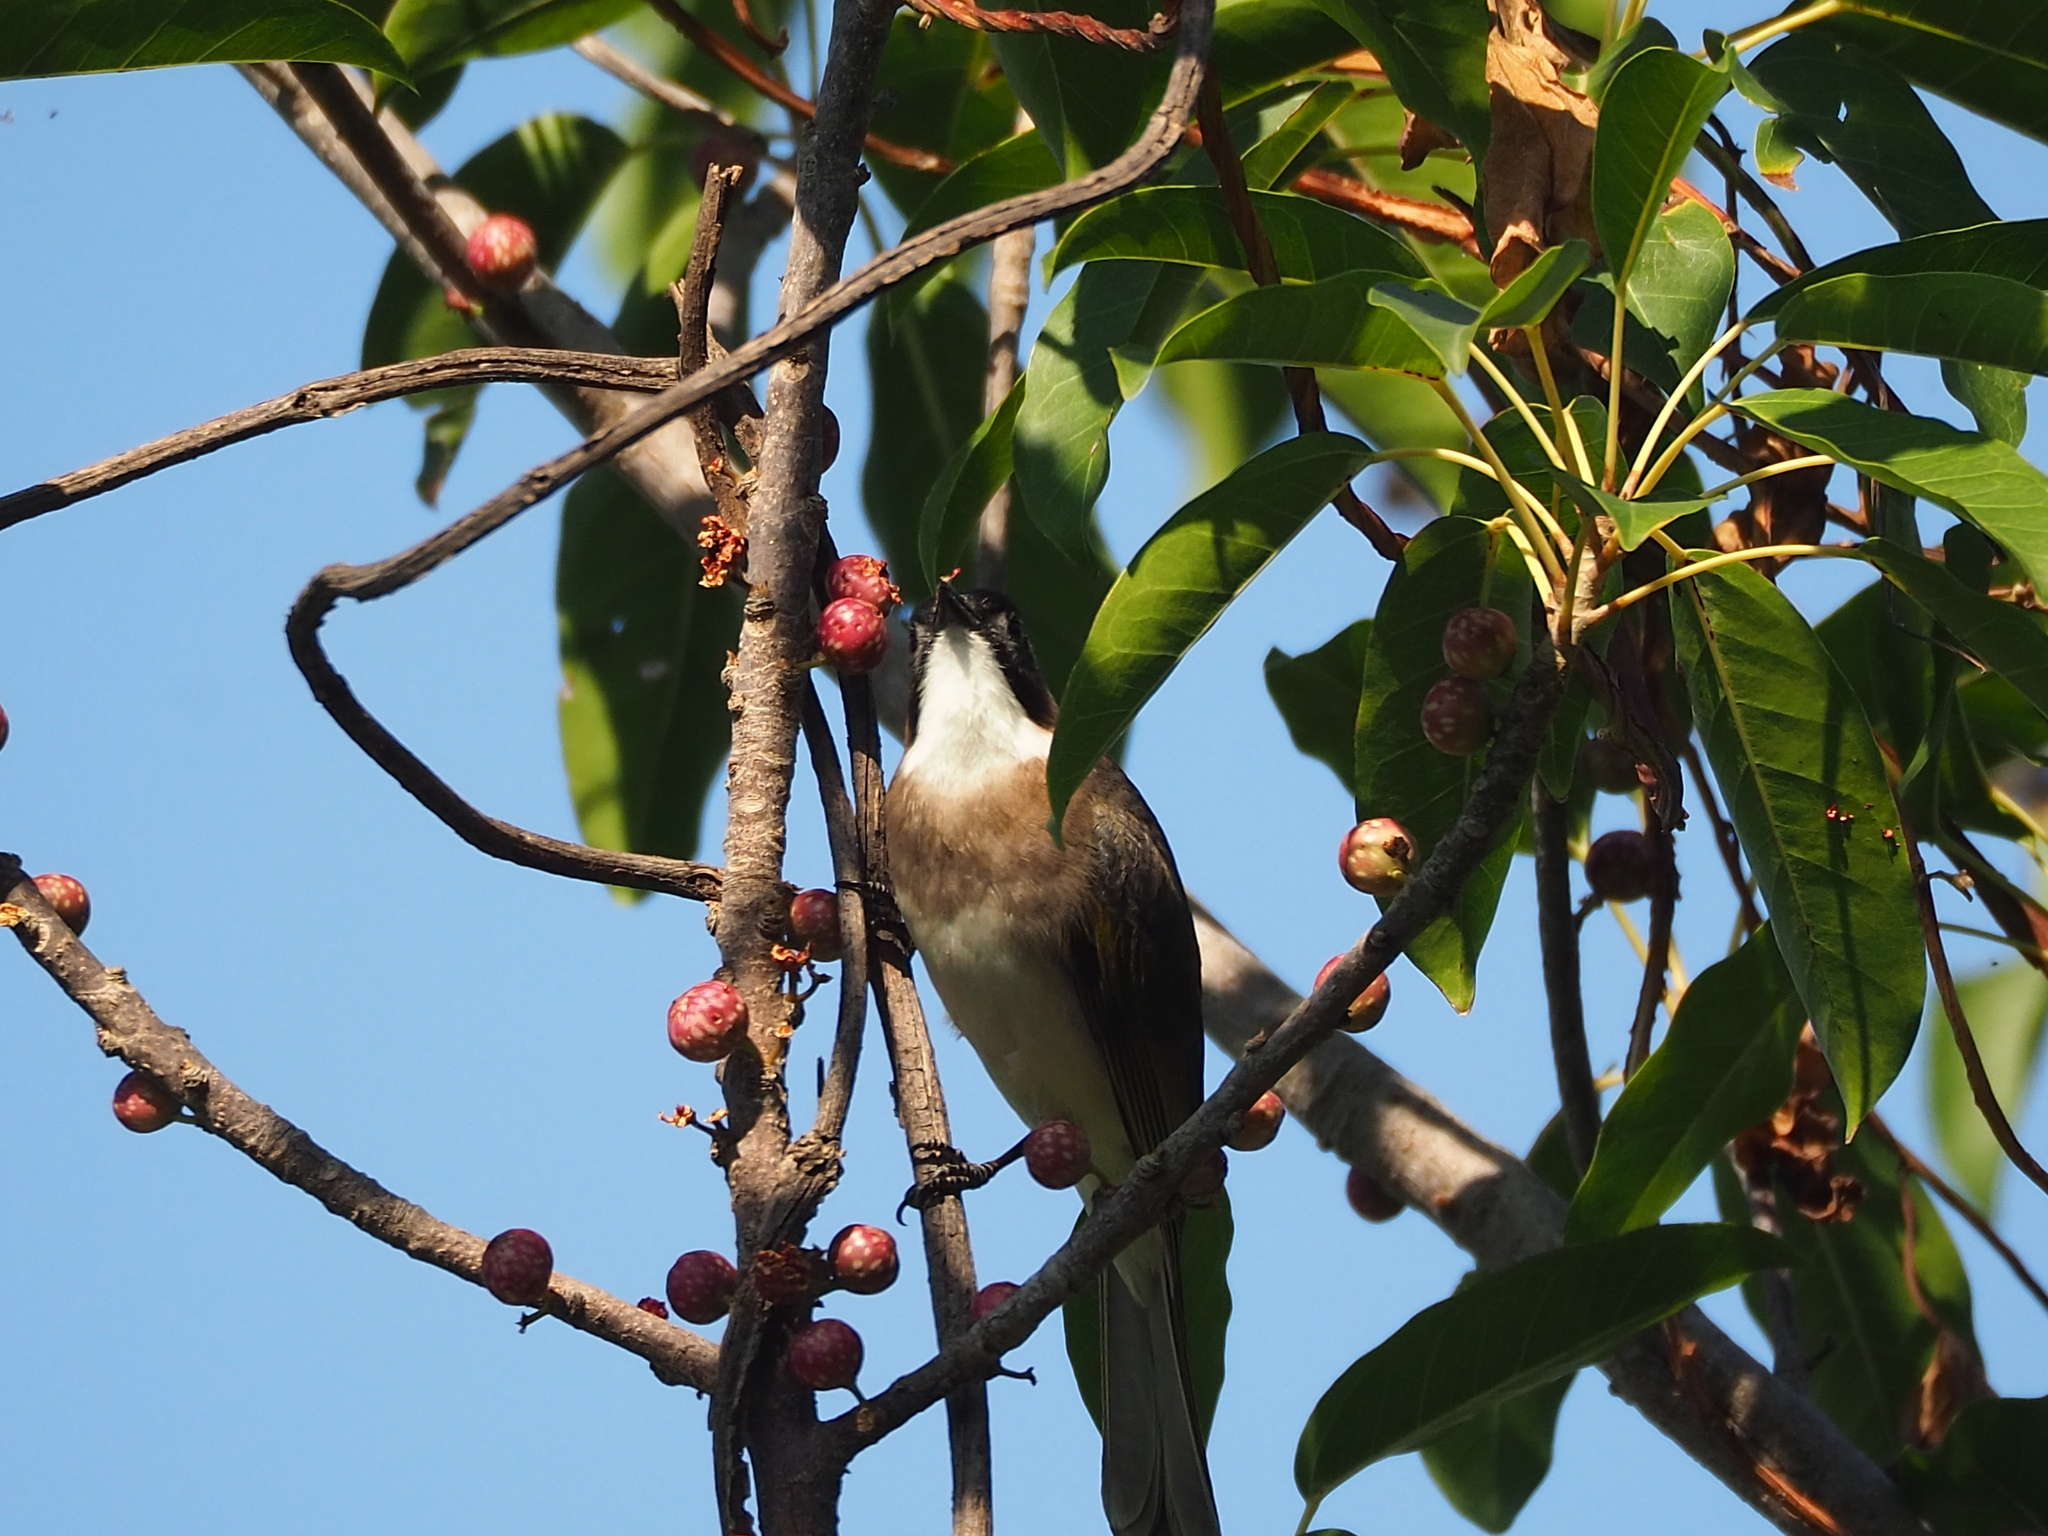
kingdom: Animalia
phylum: Chordata
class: Aves
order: Passeriformes
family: Pycnonotidae
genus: Pycnonotus
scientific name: Pycnonotus sinensis
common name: Light-vented bulbul
